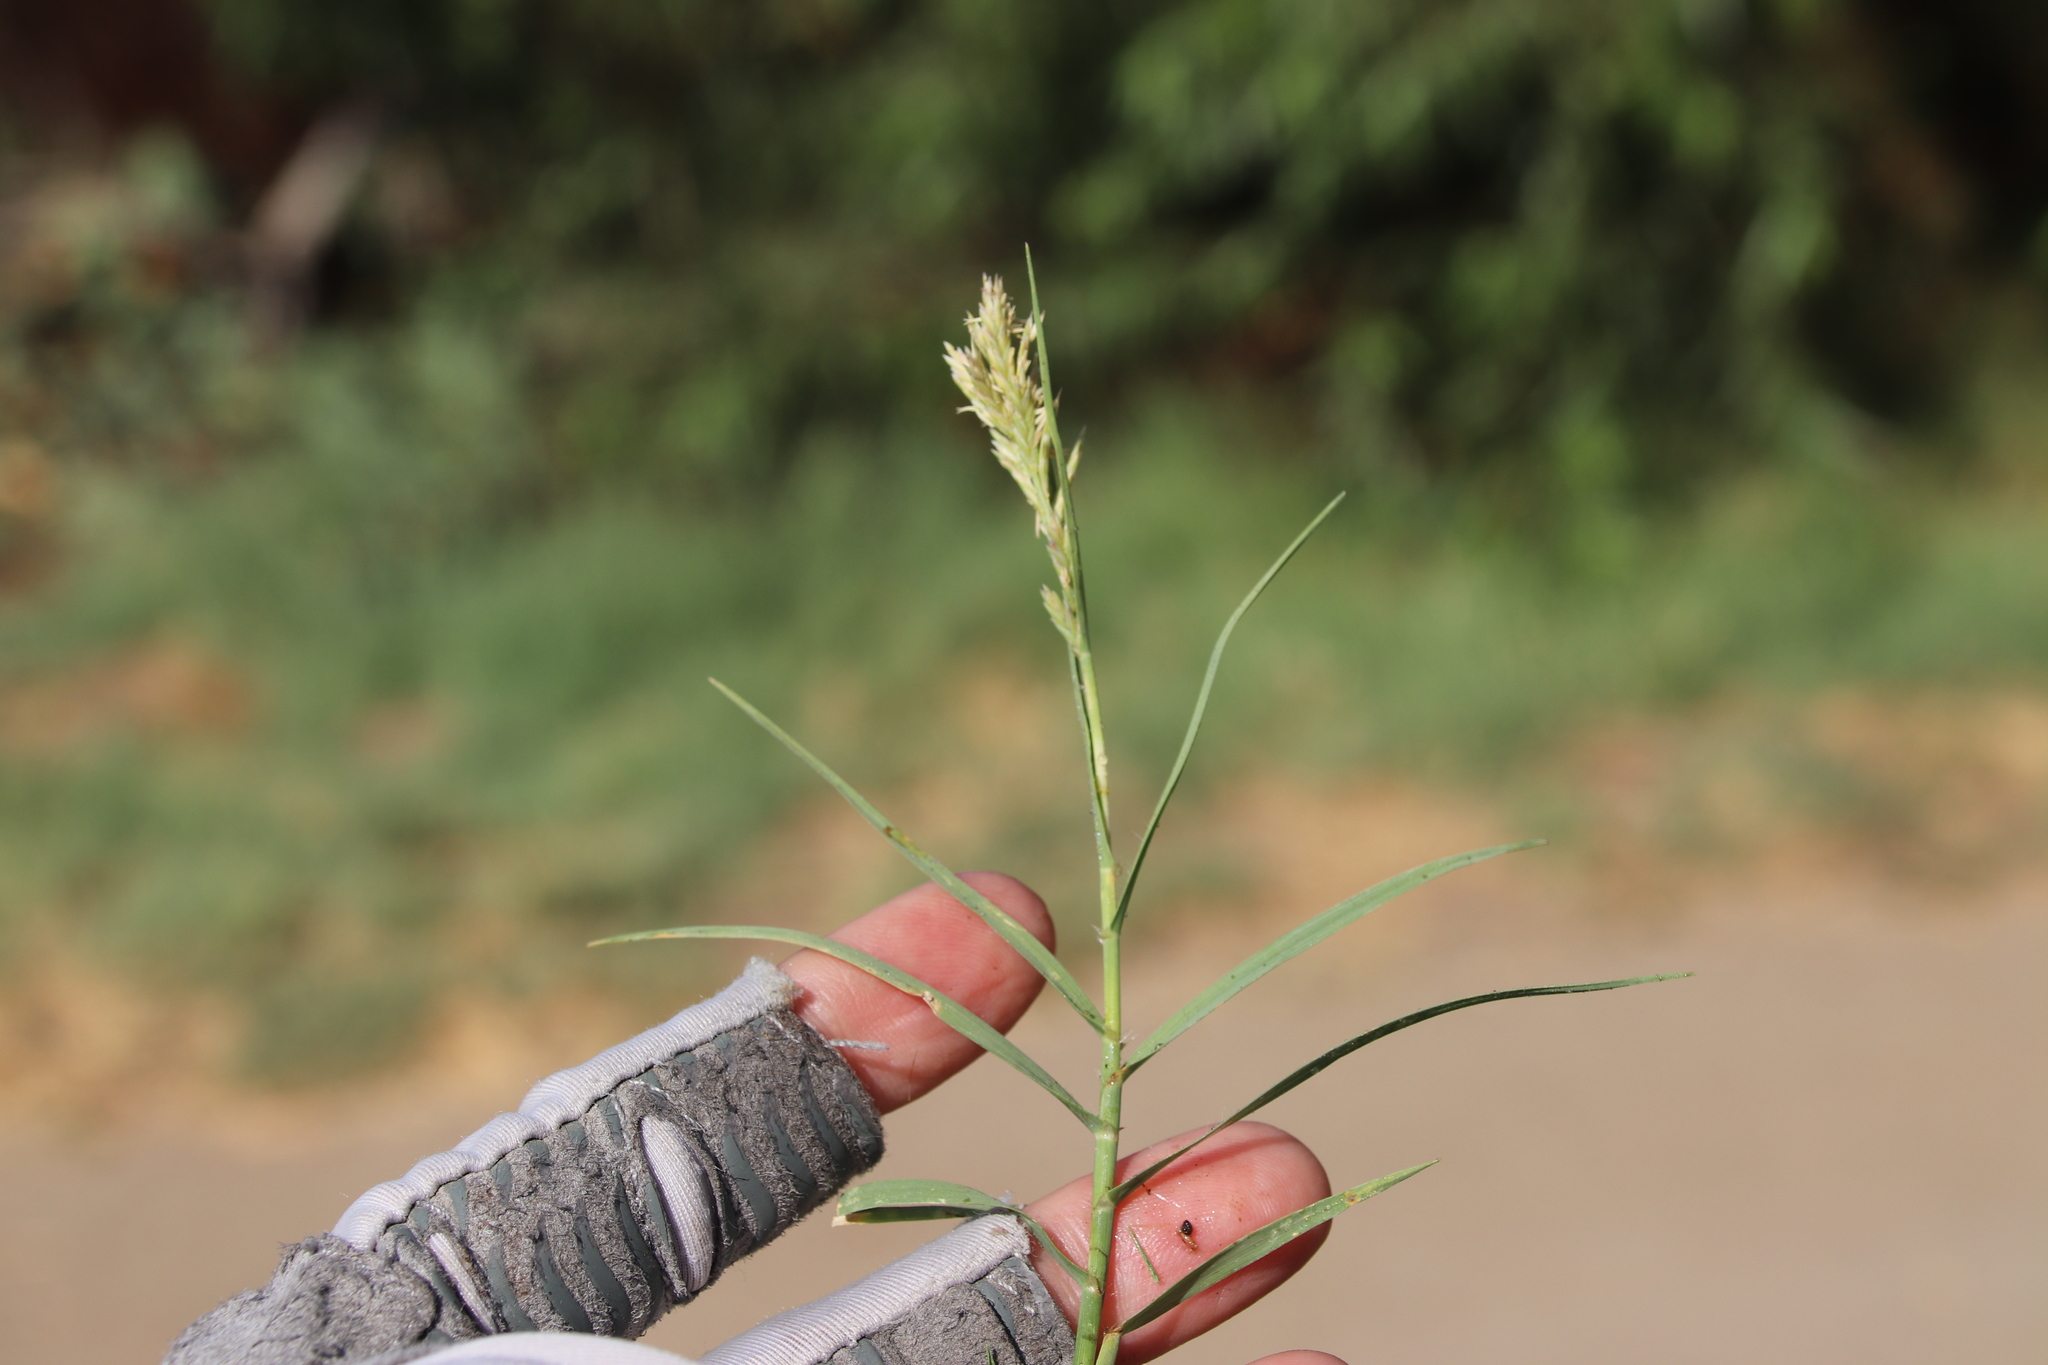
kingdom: Plantae
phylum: Tracheophyta
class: Liliopsida
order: Poales
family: Poaceae
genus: Distichlis
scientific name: Distichlis spicata
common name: Saltgrass
